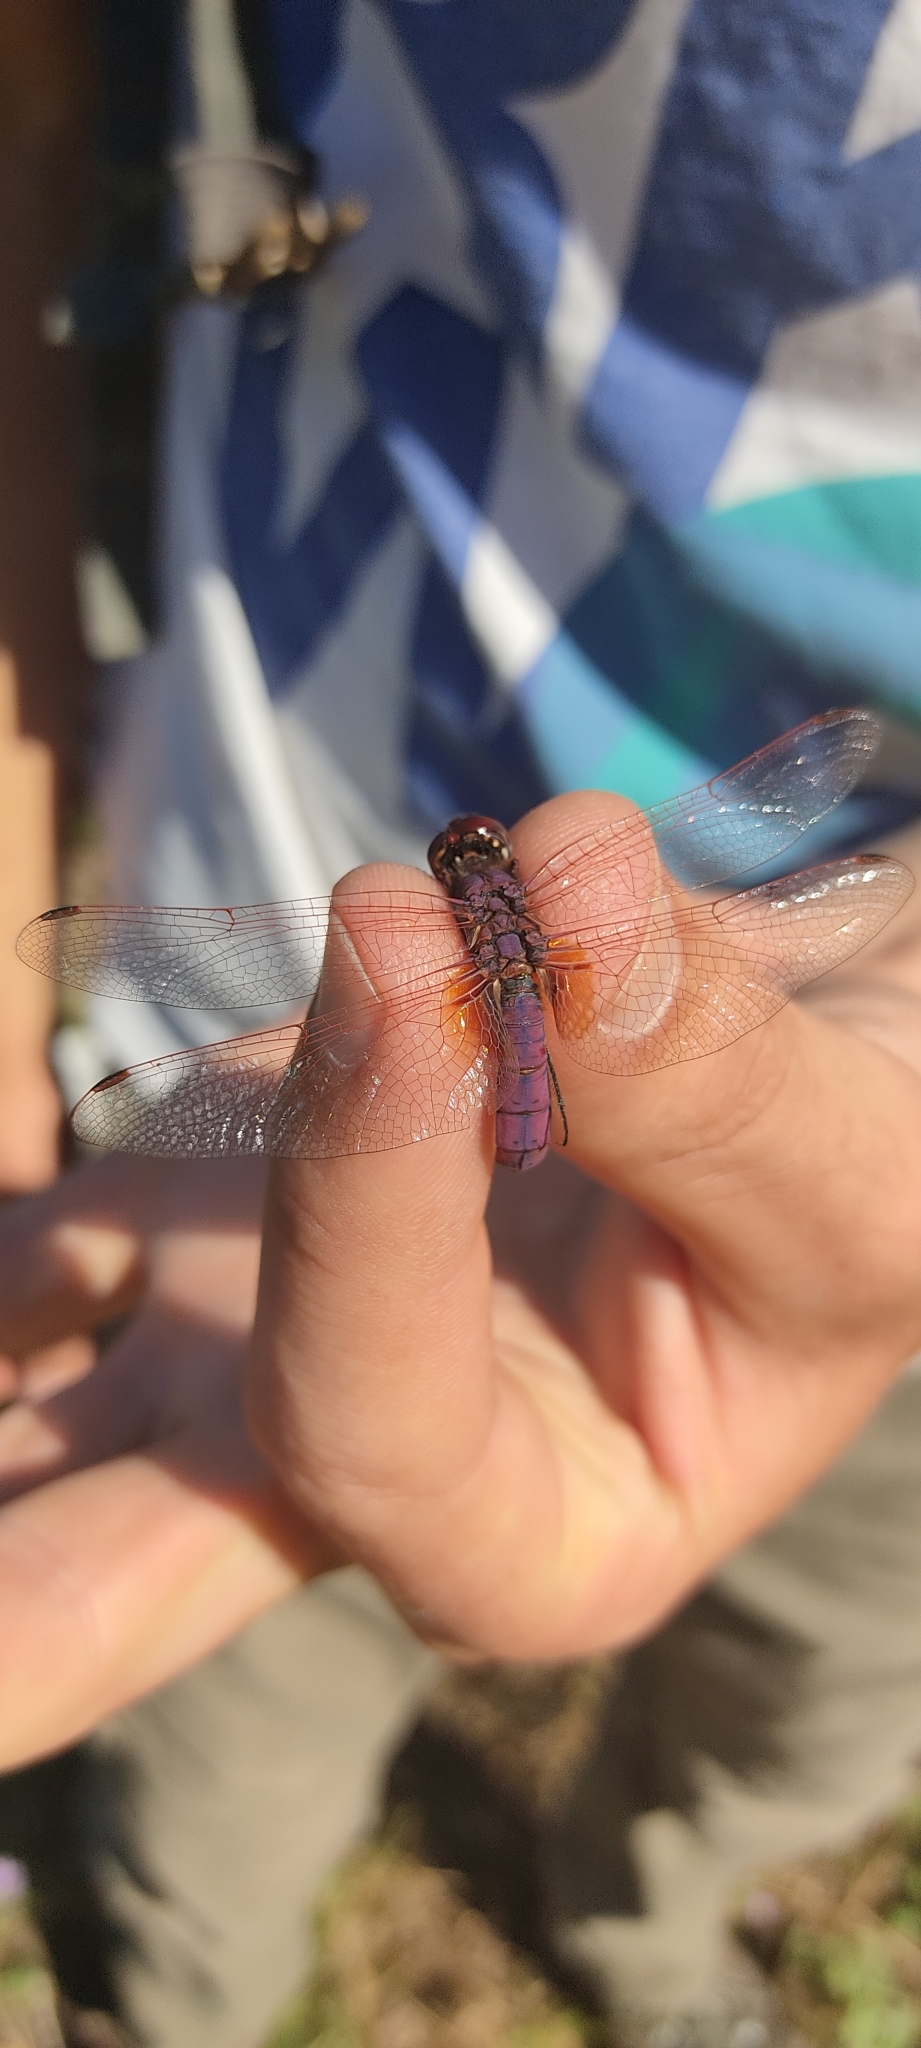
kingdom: Animalia
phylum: Arthropoda
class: Insecta
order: Odonata
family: Libellulidae
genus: Trithemis
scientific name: Trithemis annulata
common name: Violet dropwing
